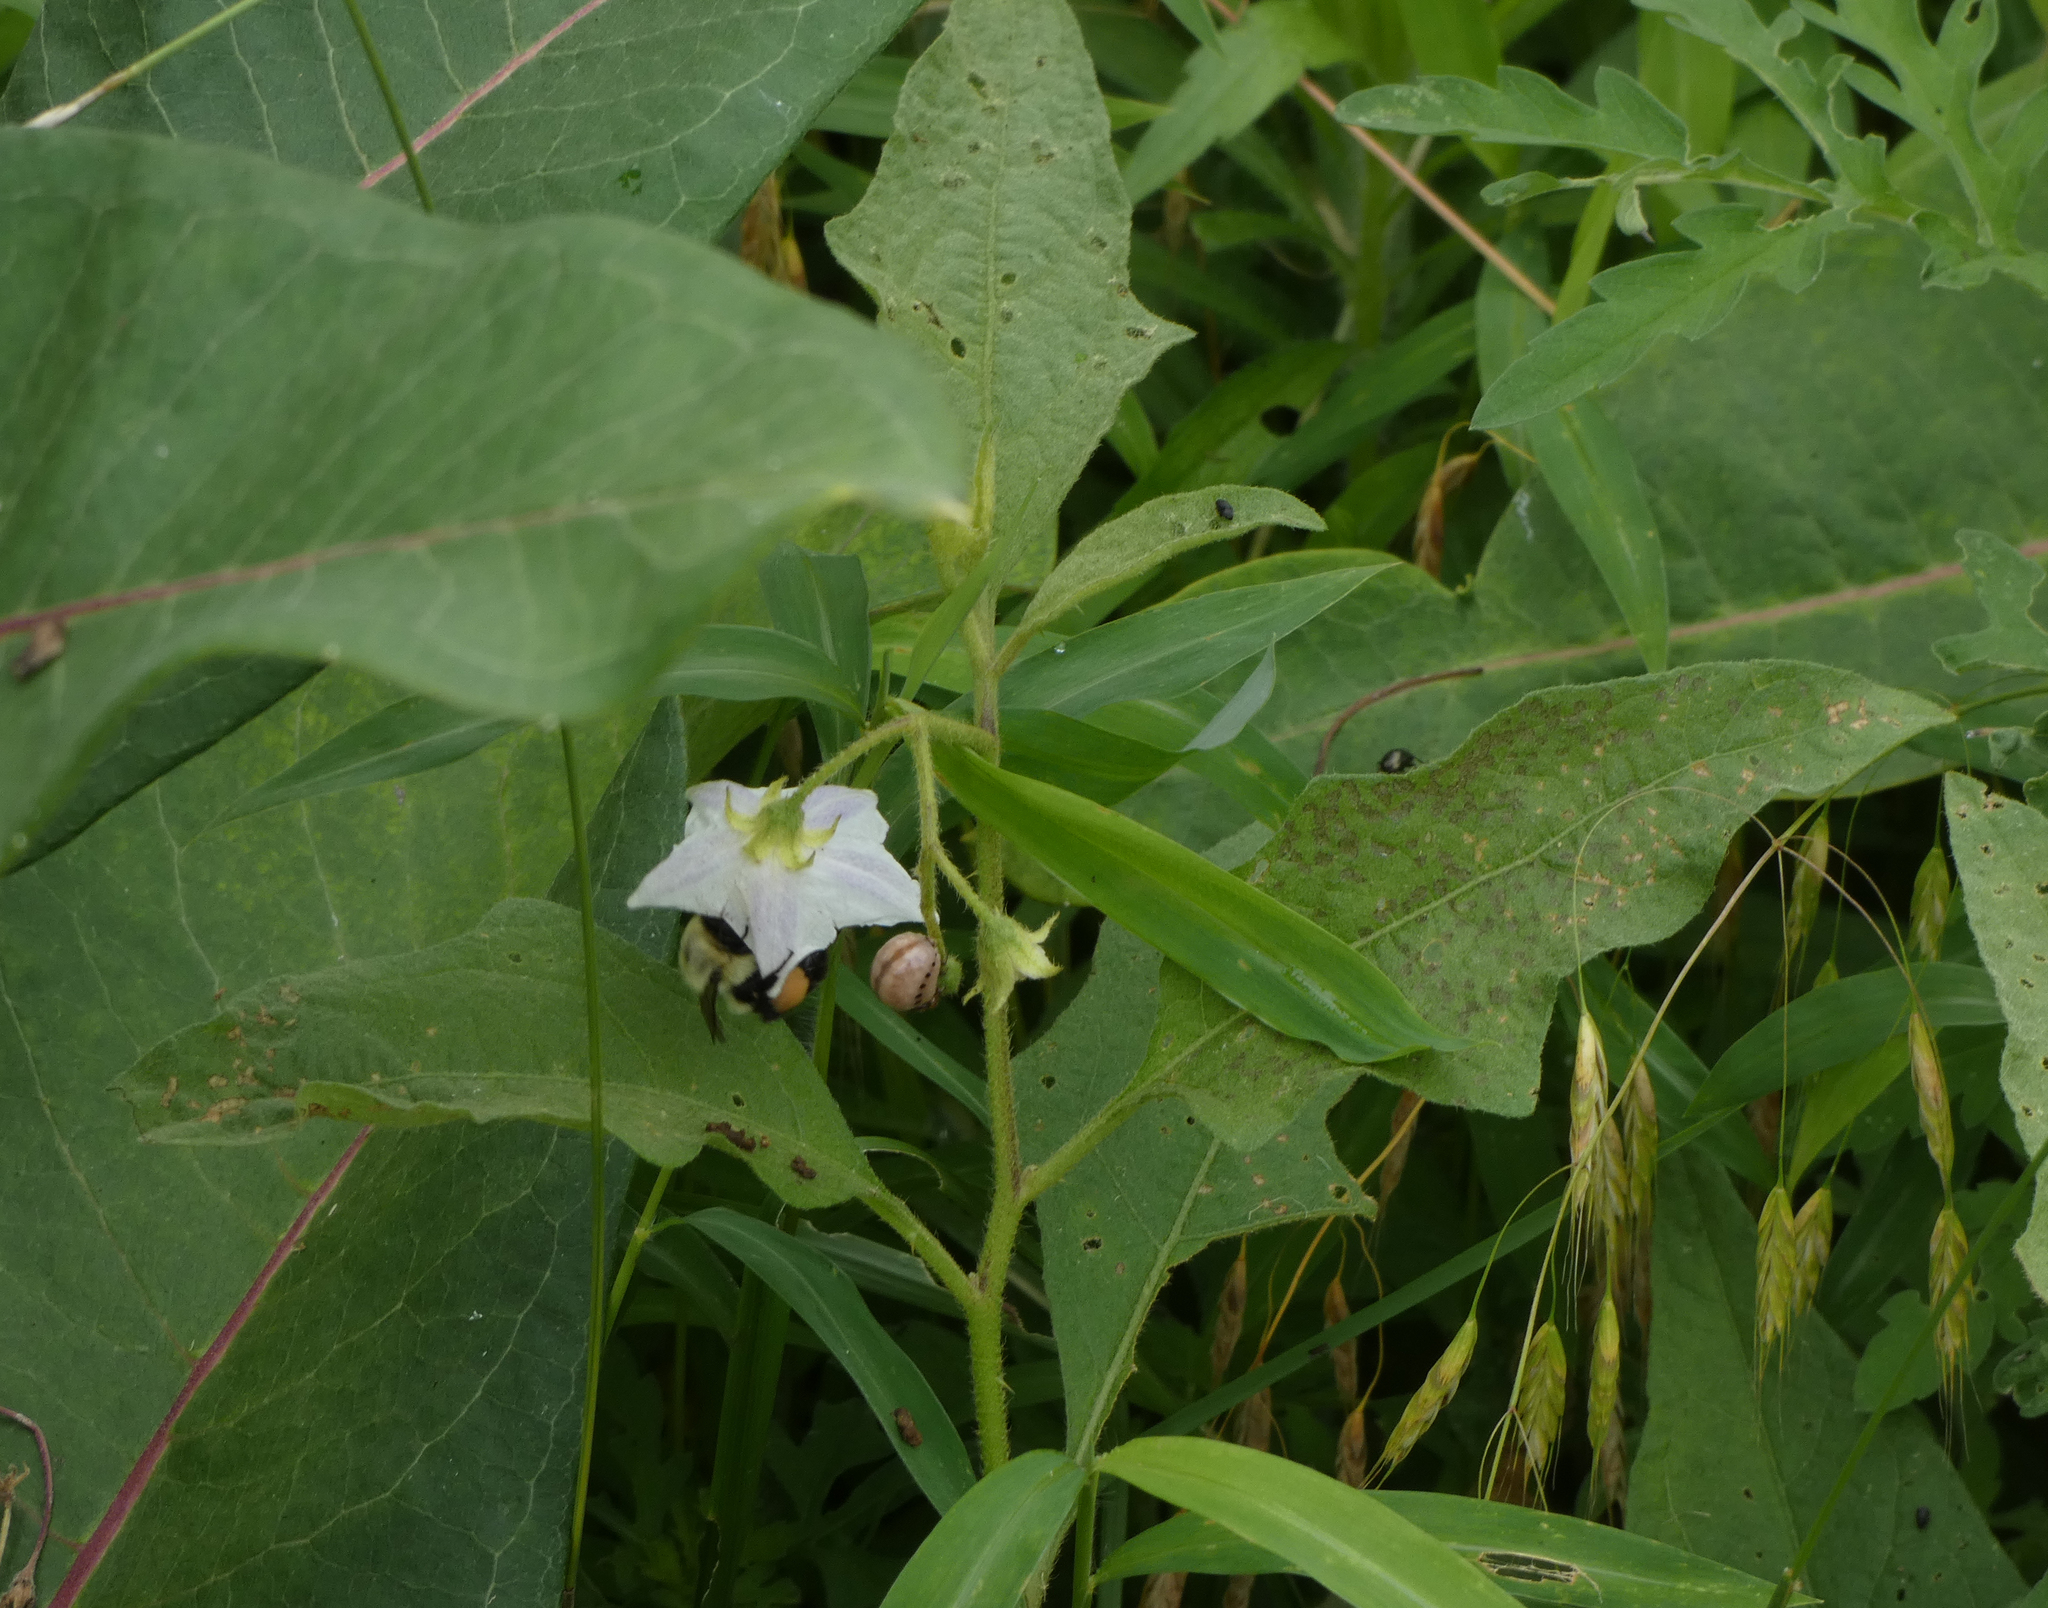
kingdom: Plantae
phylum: Tracheophyta
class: Magnoliopsida
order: Solanales
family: Solanaceae
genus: Solanum
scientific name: Solanum carolinense
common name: Horse-nettle
